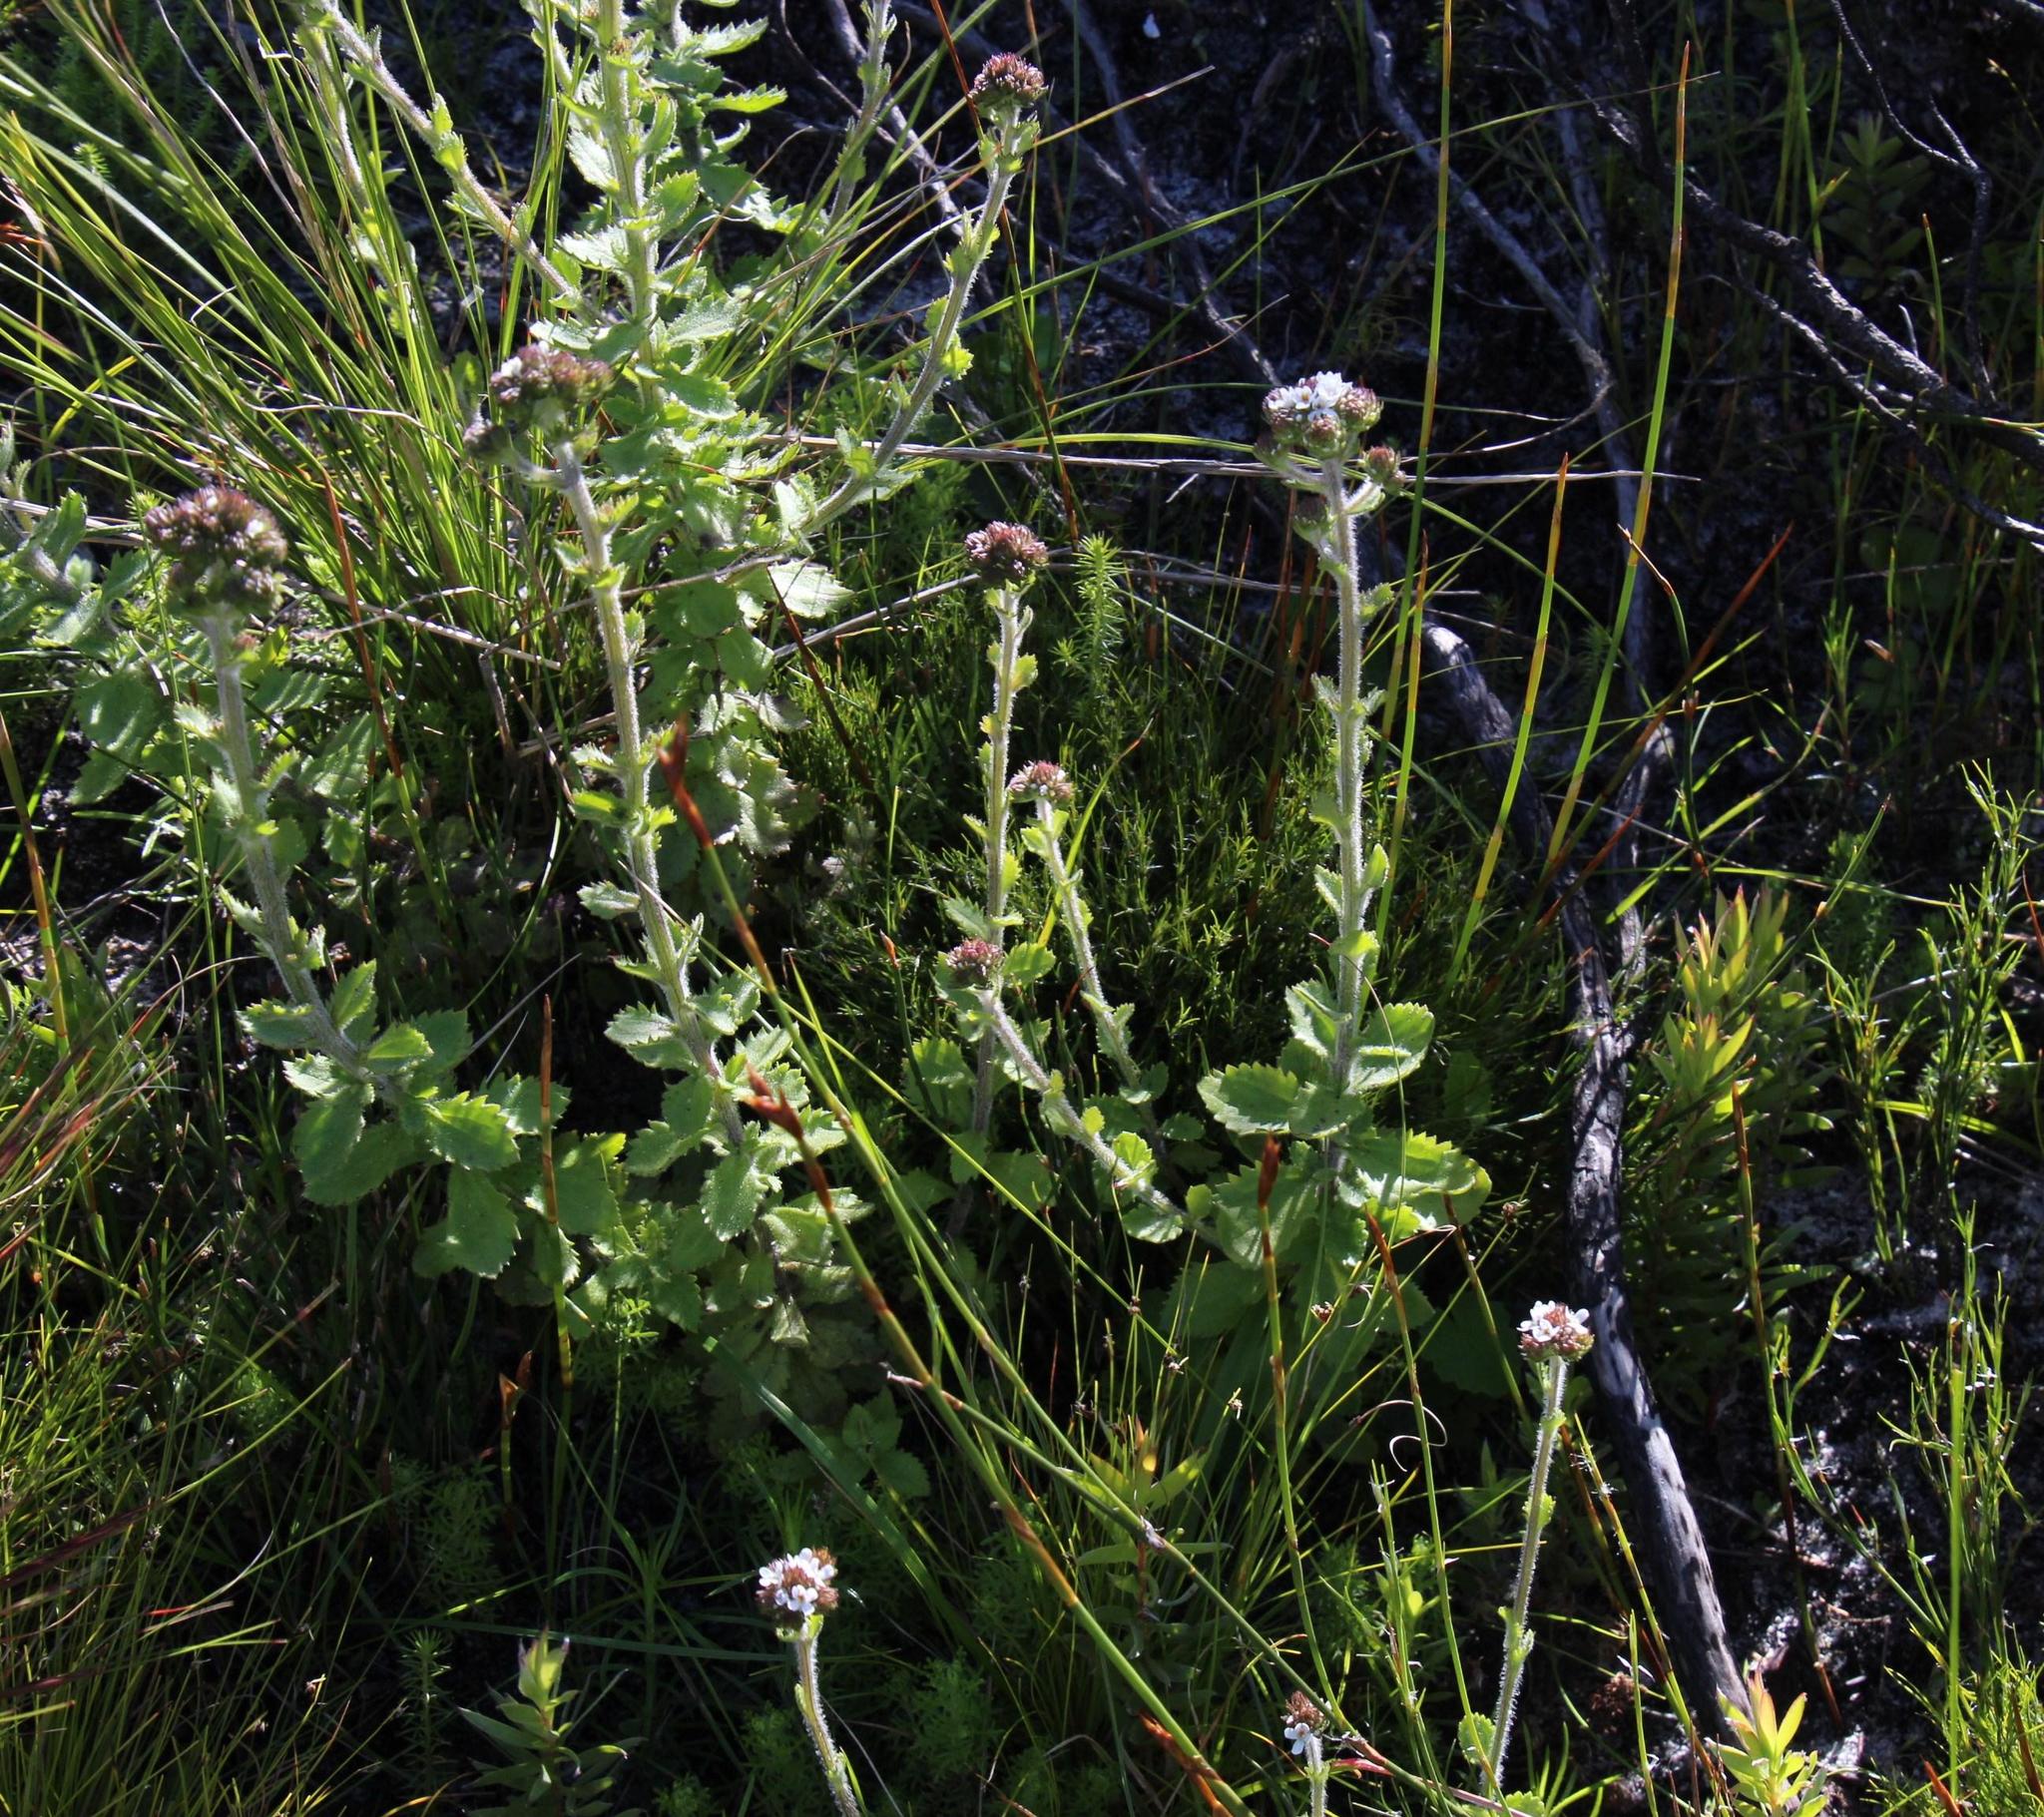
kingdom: Plantae
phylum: Tracheophyta
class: Magnoliopsida
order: Lamiales
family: Scrophulariaceae
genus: Pseudoselago
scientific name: Pseudoselago peninsulae
